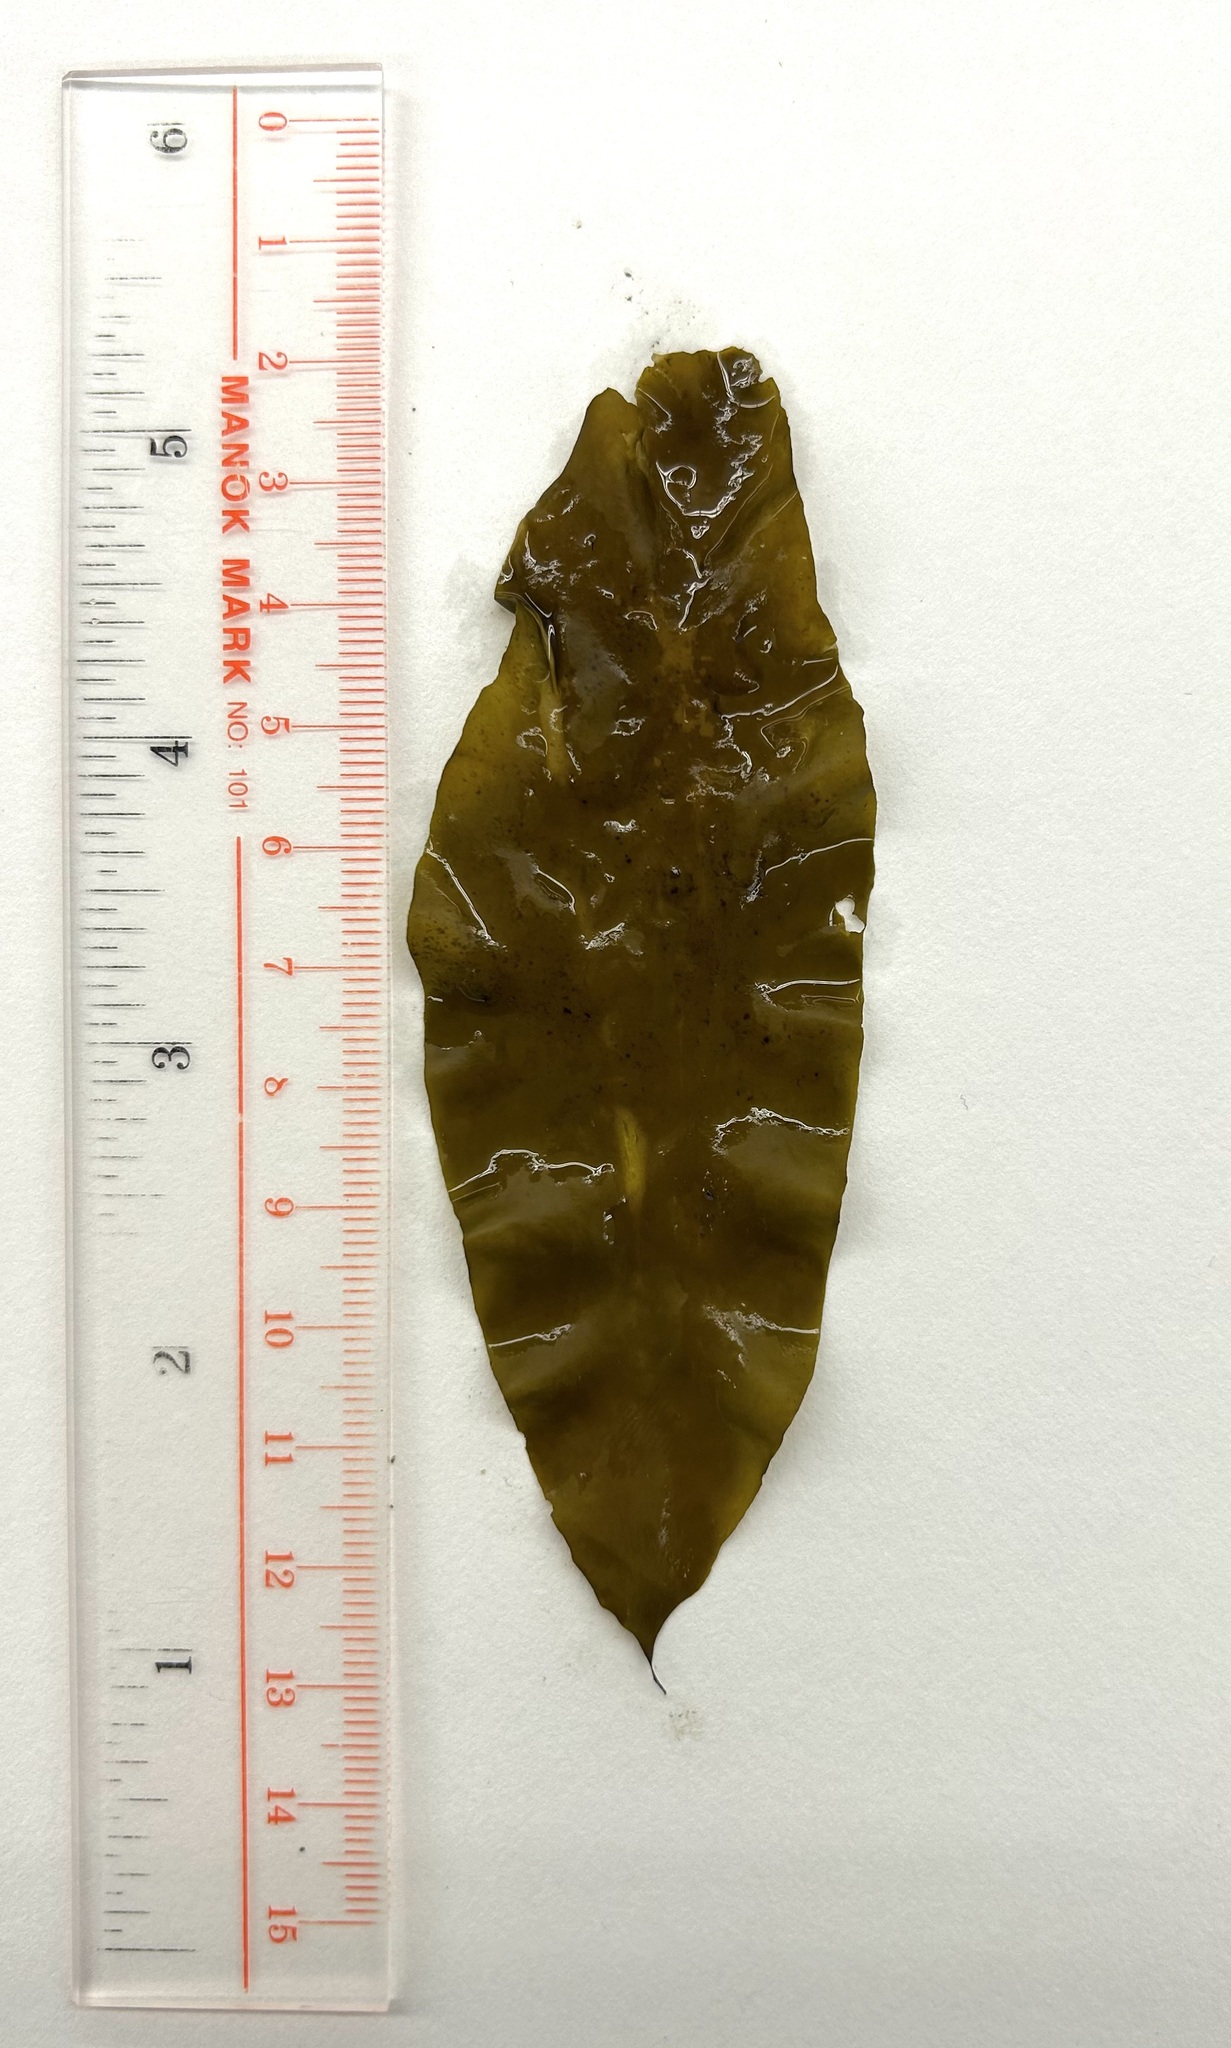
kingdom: Chromista
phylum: Ochrophyta
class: Phaeophyceae
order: Scytosiphonales
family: Scytosiphonaceae
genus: Petalonia
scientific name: Petalonia fascia
